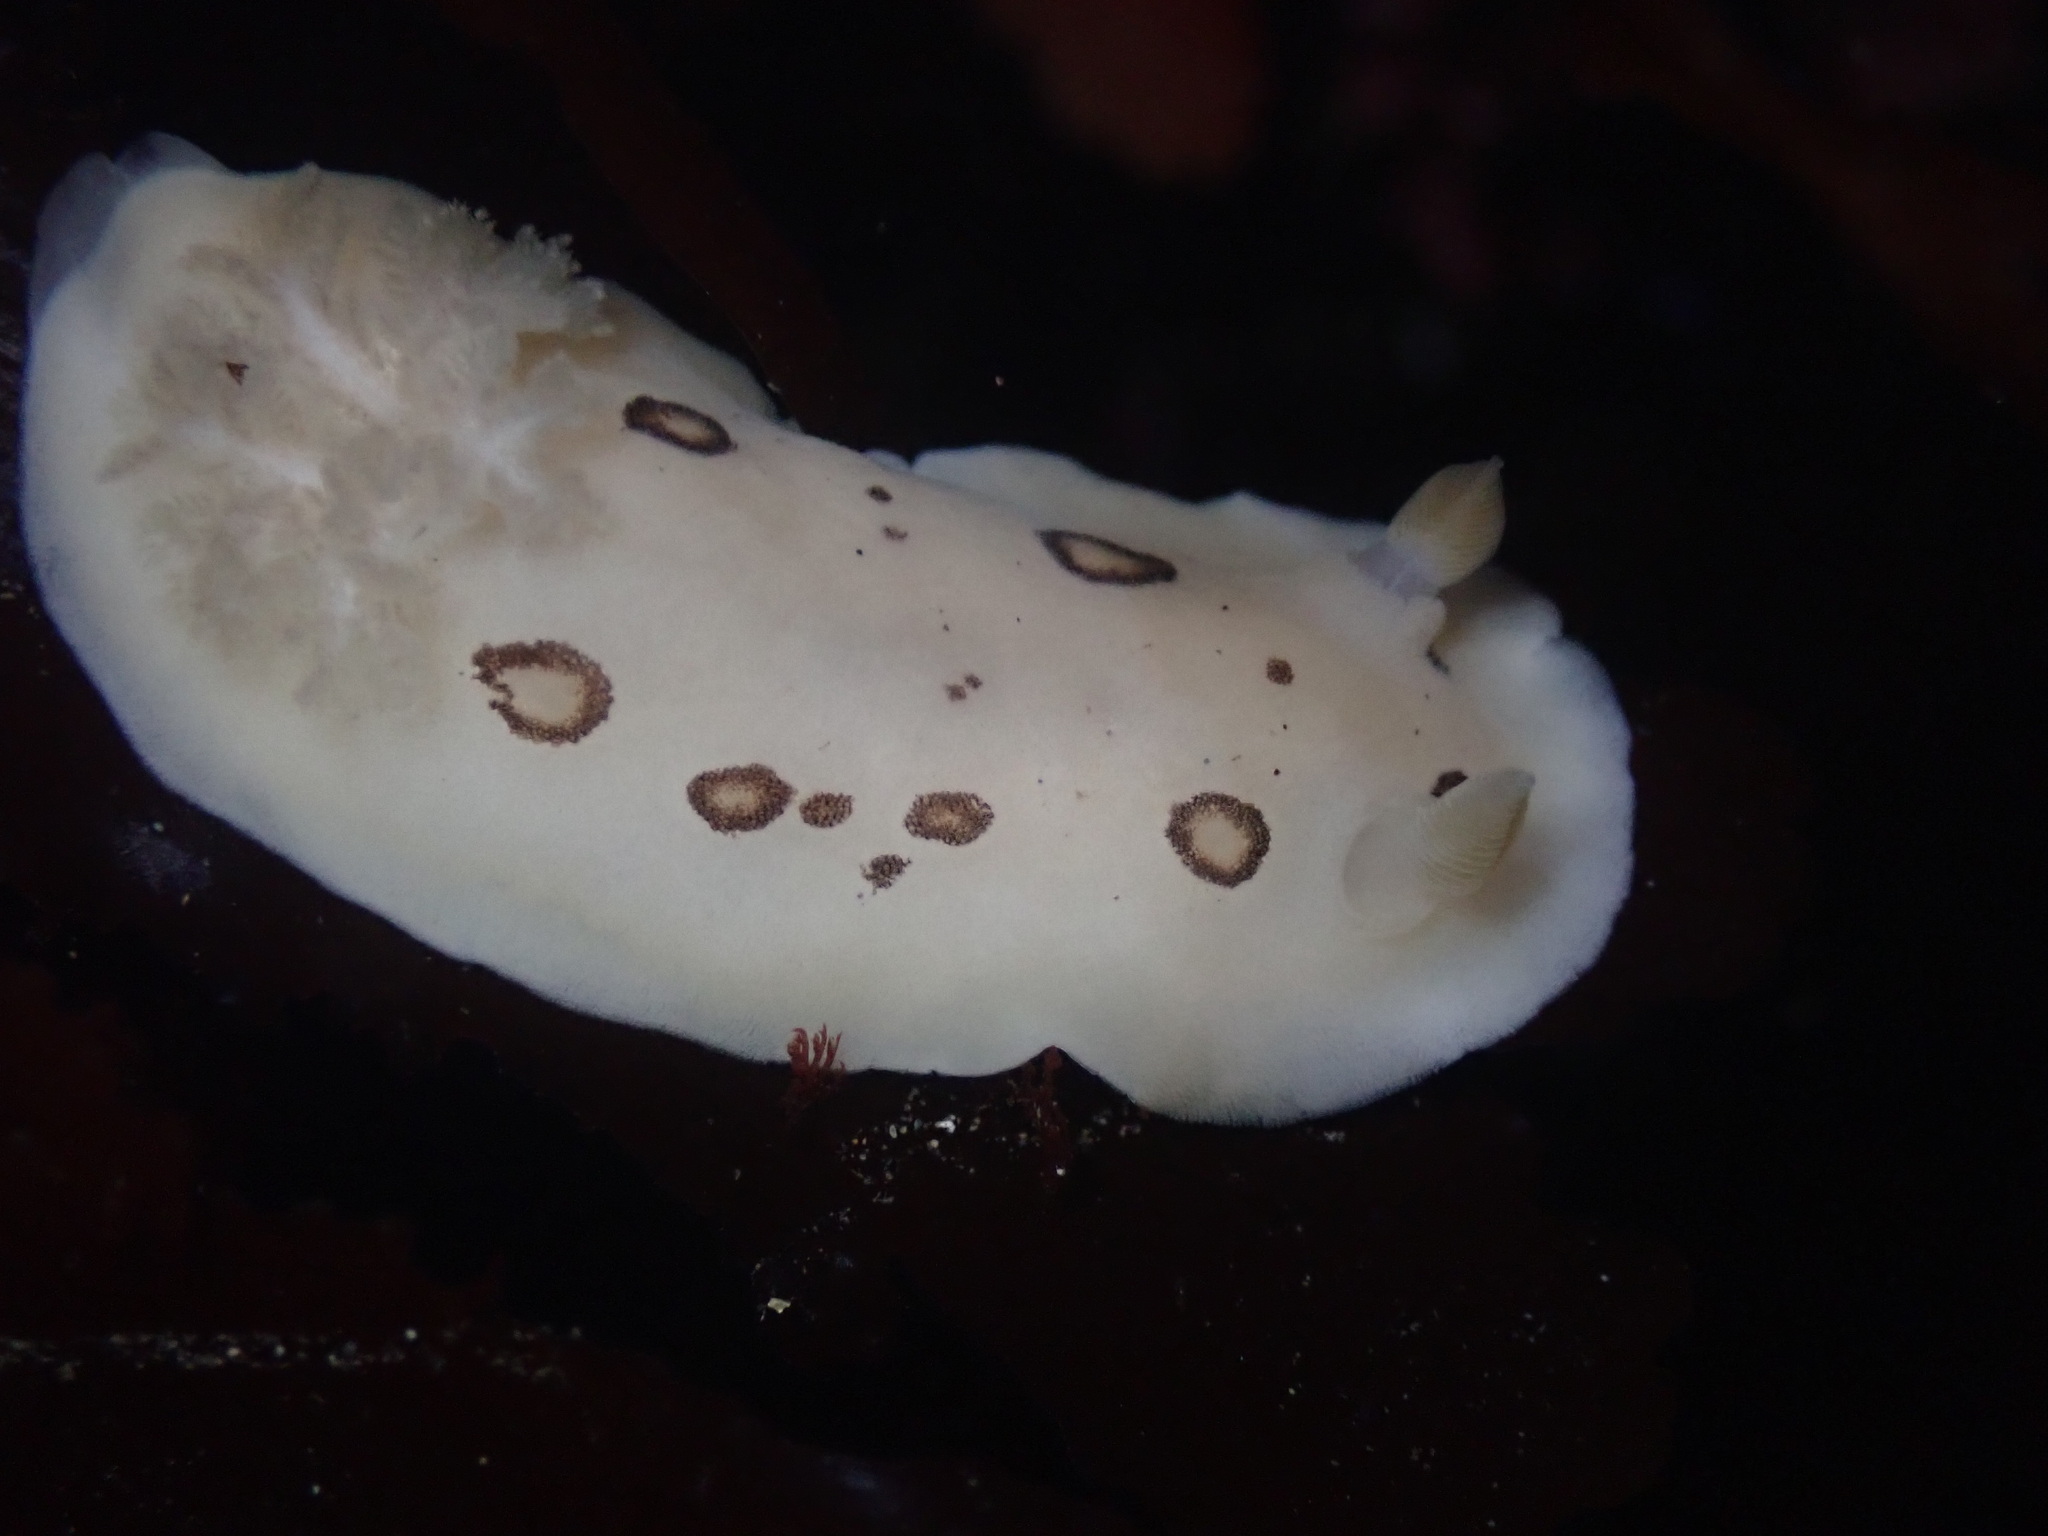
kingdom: Animalia
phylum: Mollusca
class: Gastropoda
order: Nudibranchia
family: Discodorididae
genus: Diaulula
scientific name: Diaulula sandiegensis
